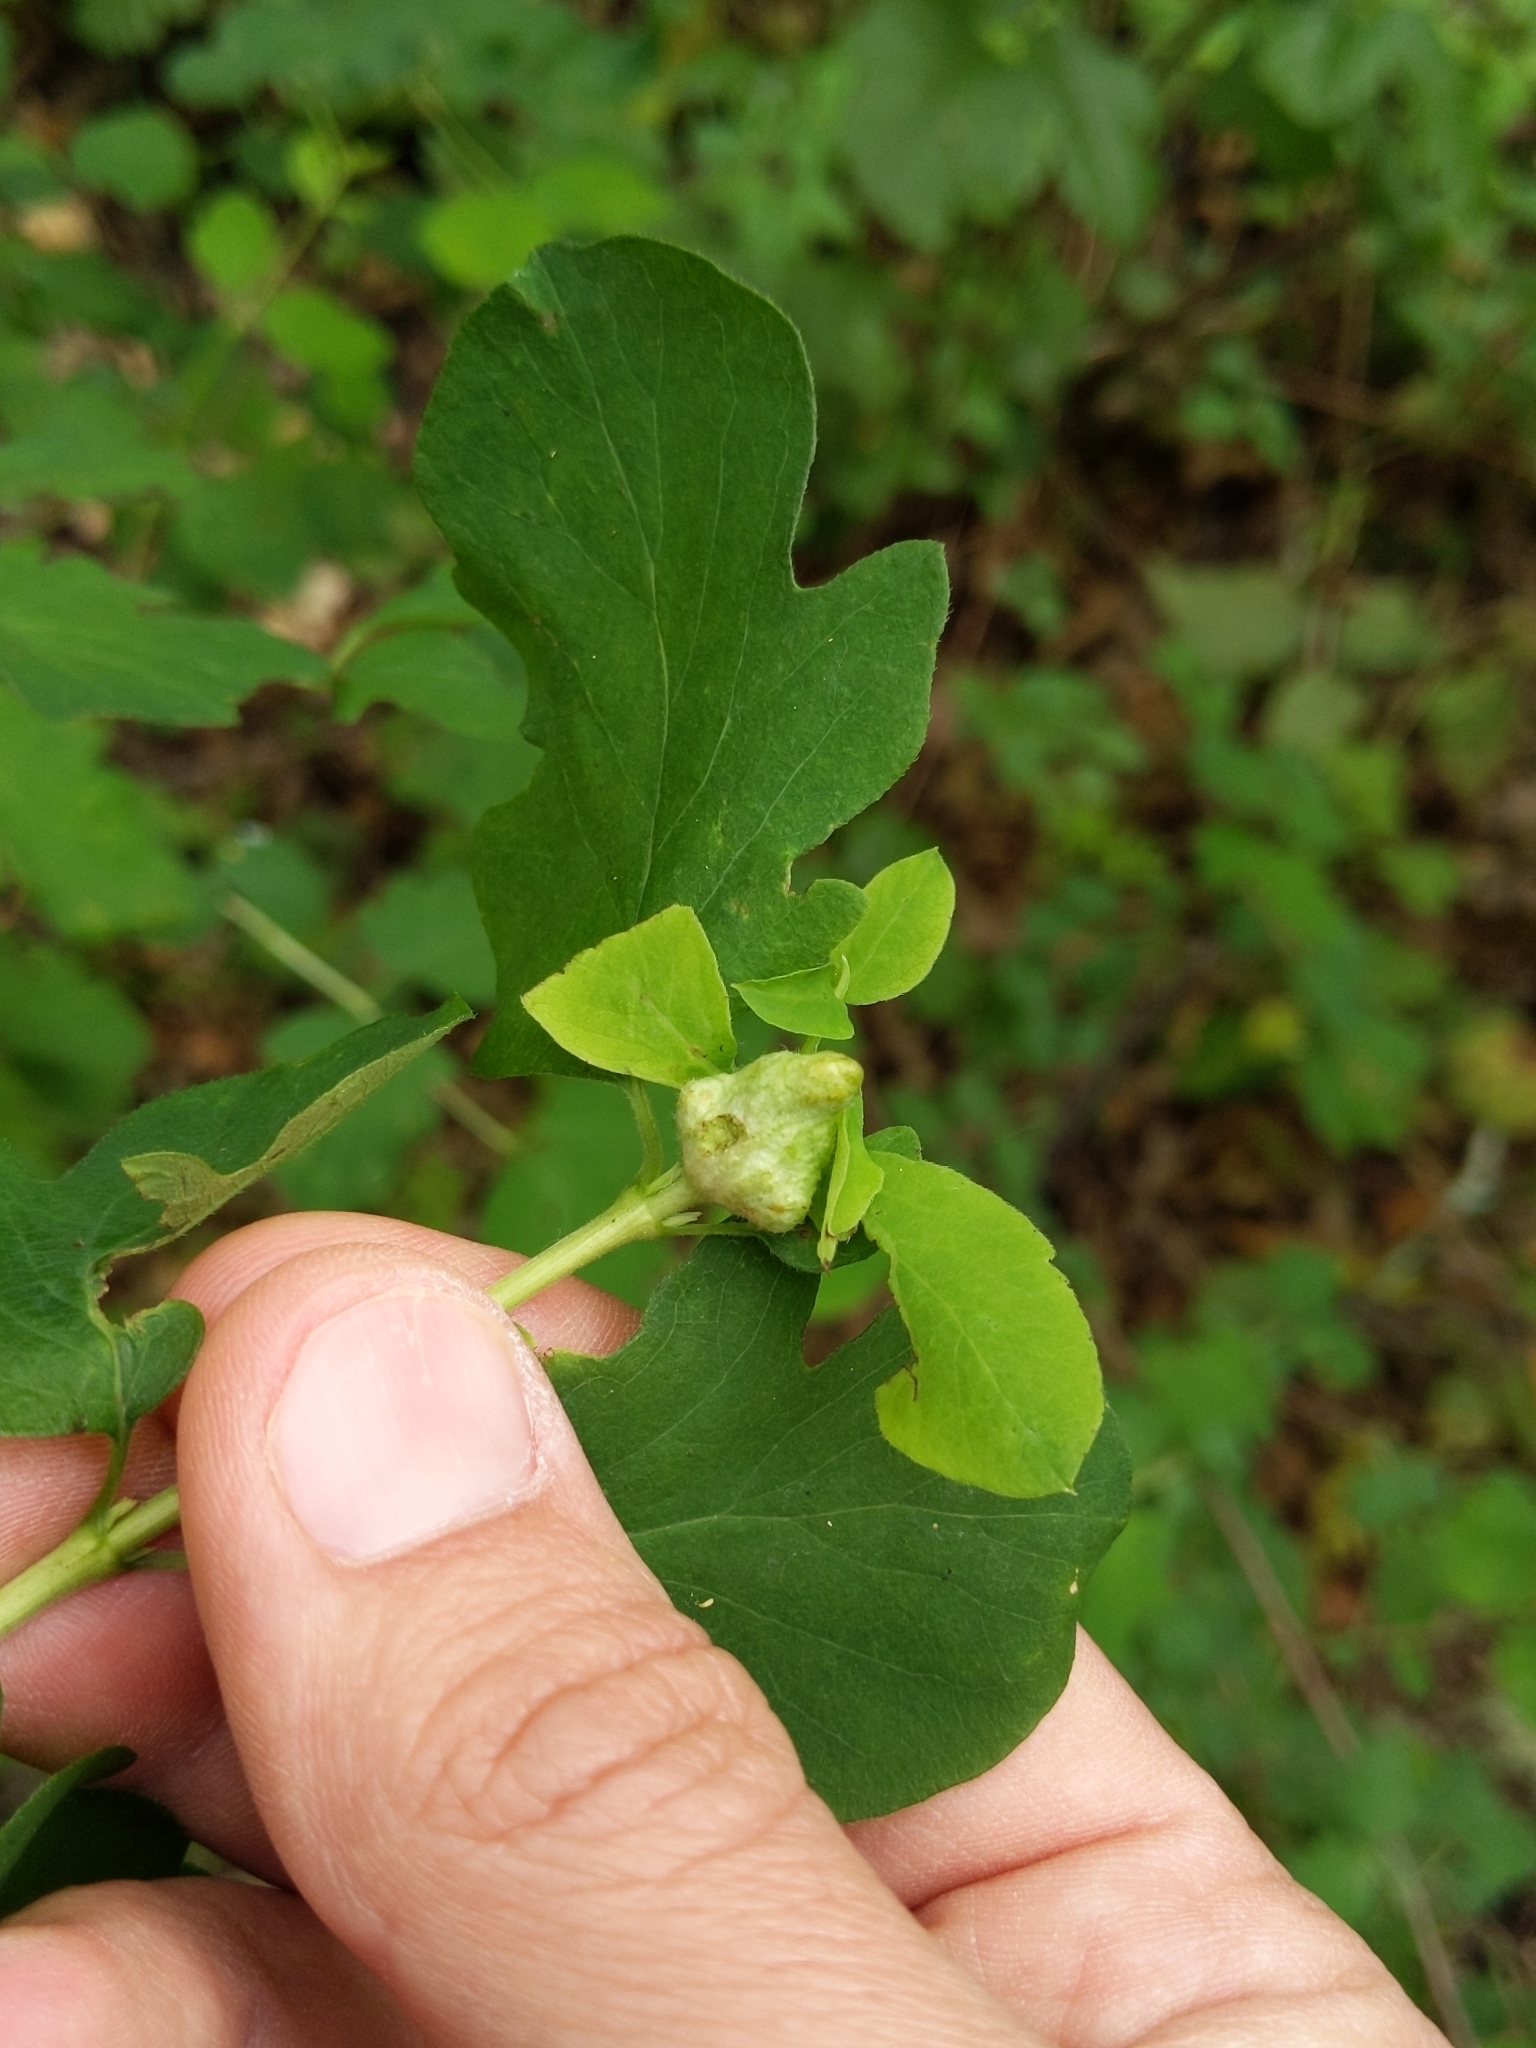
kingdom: Animalia
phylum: Arthropoda
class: Insecta
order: Hymenoptera
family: Tenthredinidae
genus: Blennogeneris
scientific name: Blennogeneris spissipes
